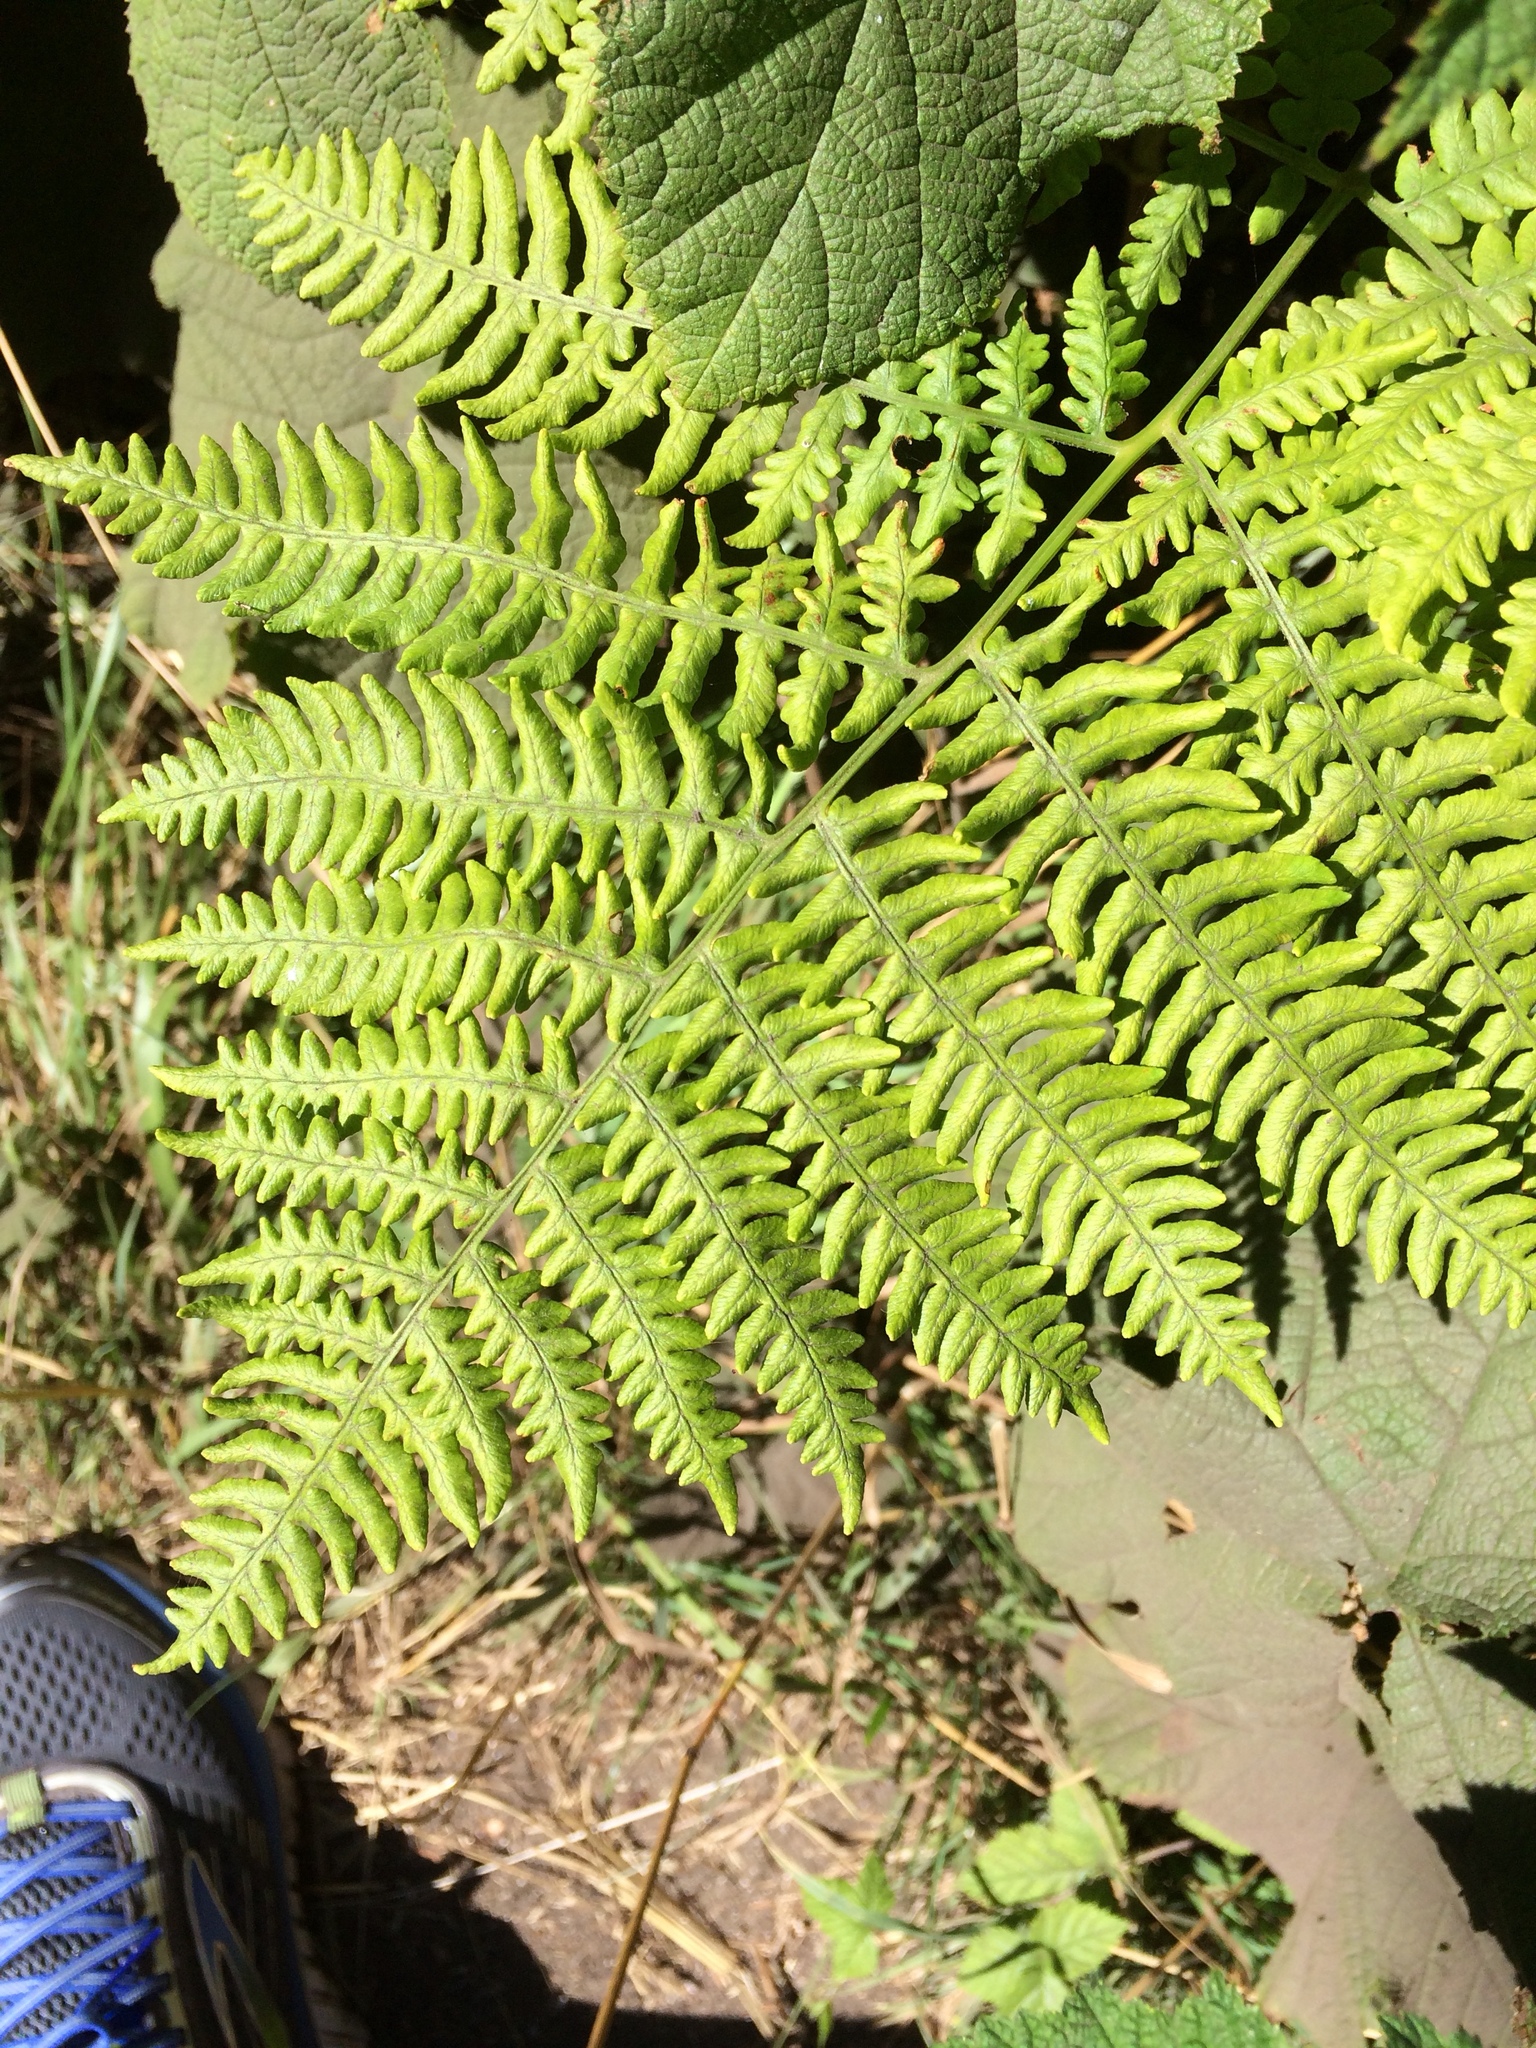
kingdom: Plantae
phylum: Tracheophyta
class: Polypodiopsida
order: Polypodiales
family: Dennstaedtiaceae
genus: Pteridium
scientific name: Pteridium aquilinum
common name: Bracken
